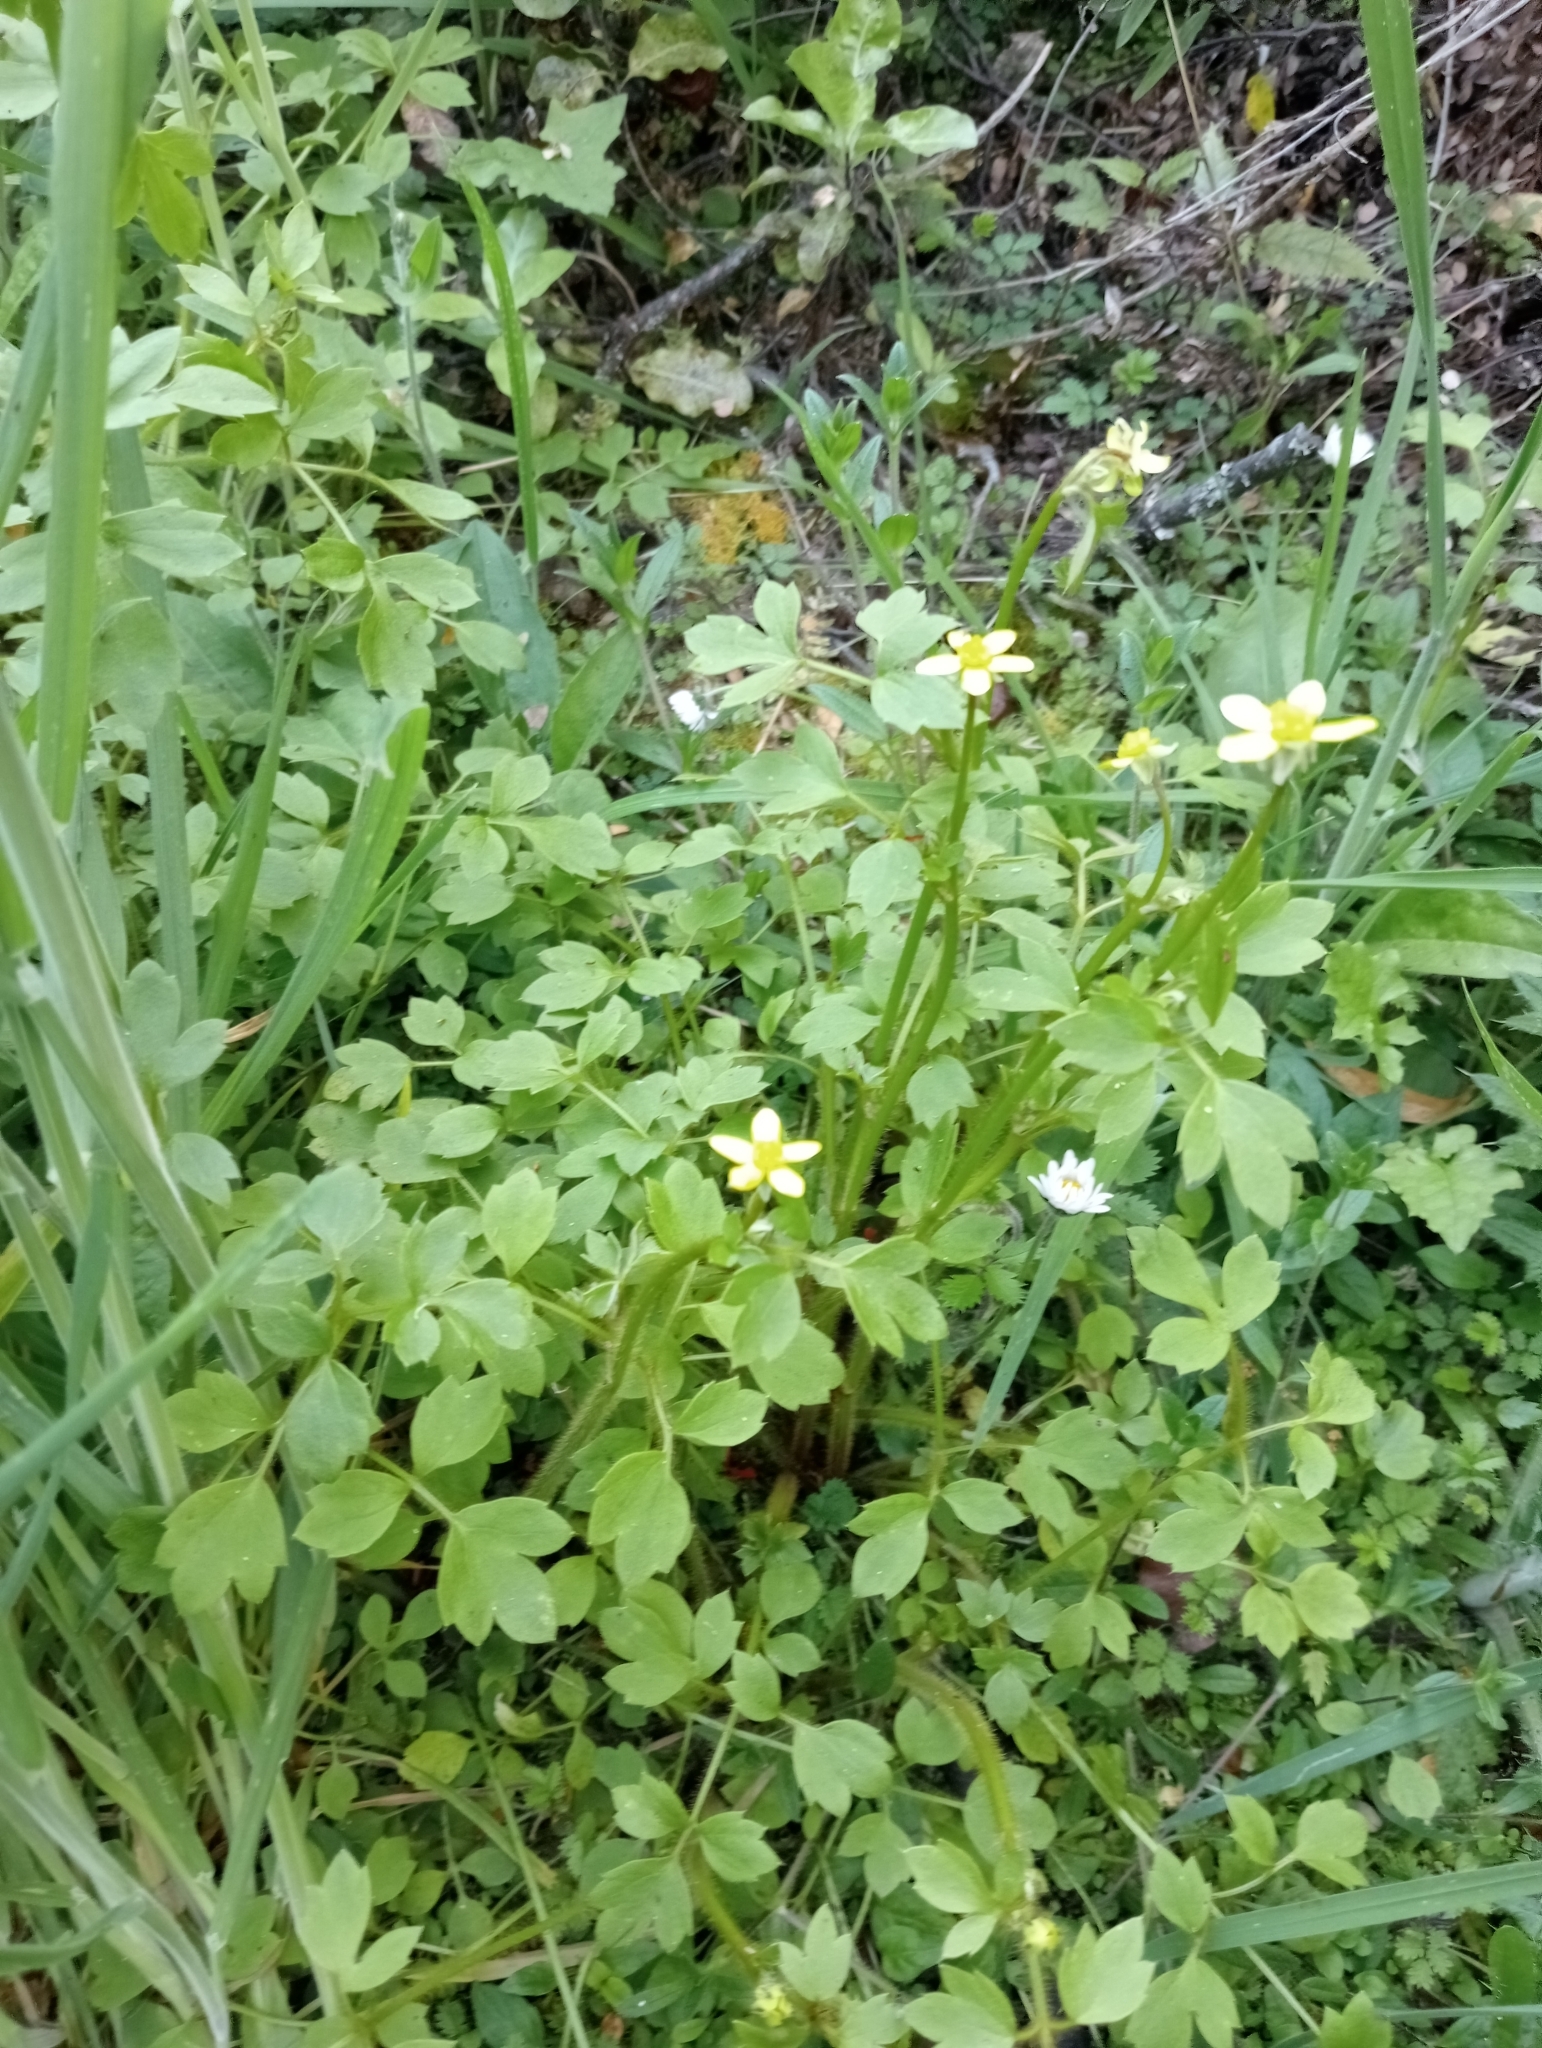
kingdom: Plantae
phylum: Tracheophyta
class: Magnoliopsida
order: Ranunculales
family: Ranunculaceae
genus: Ranunculus
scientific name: Ranunculus reflexus
